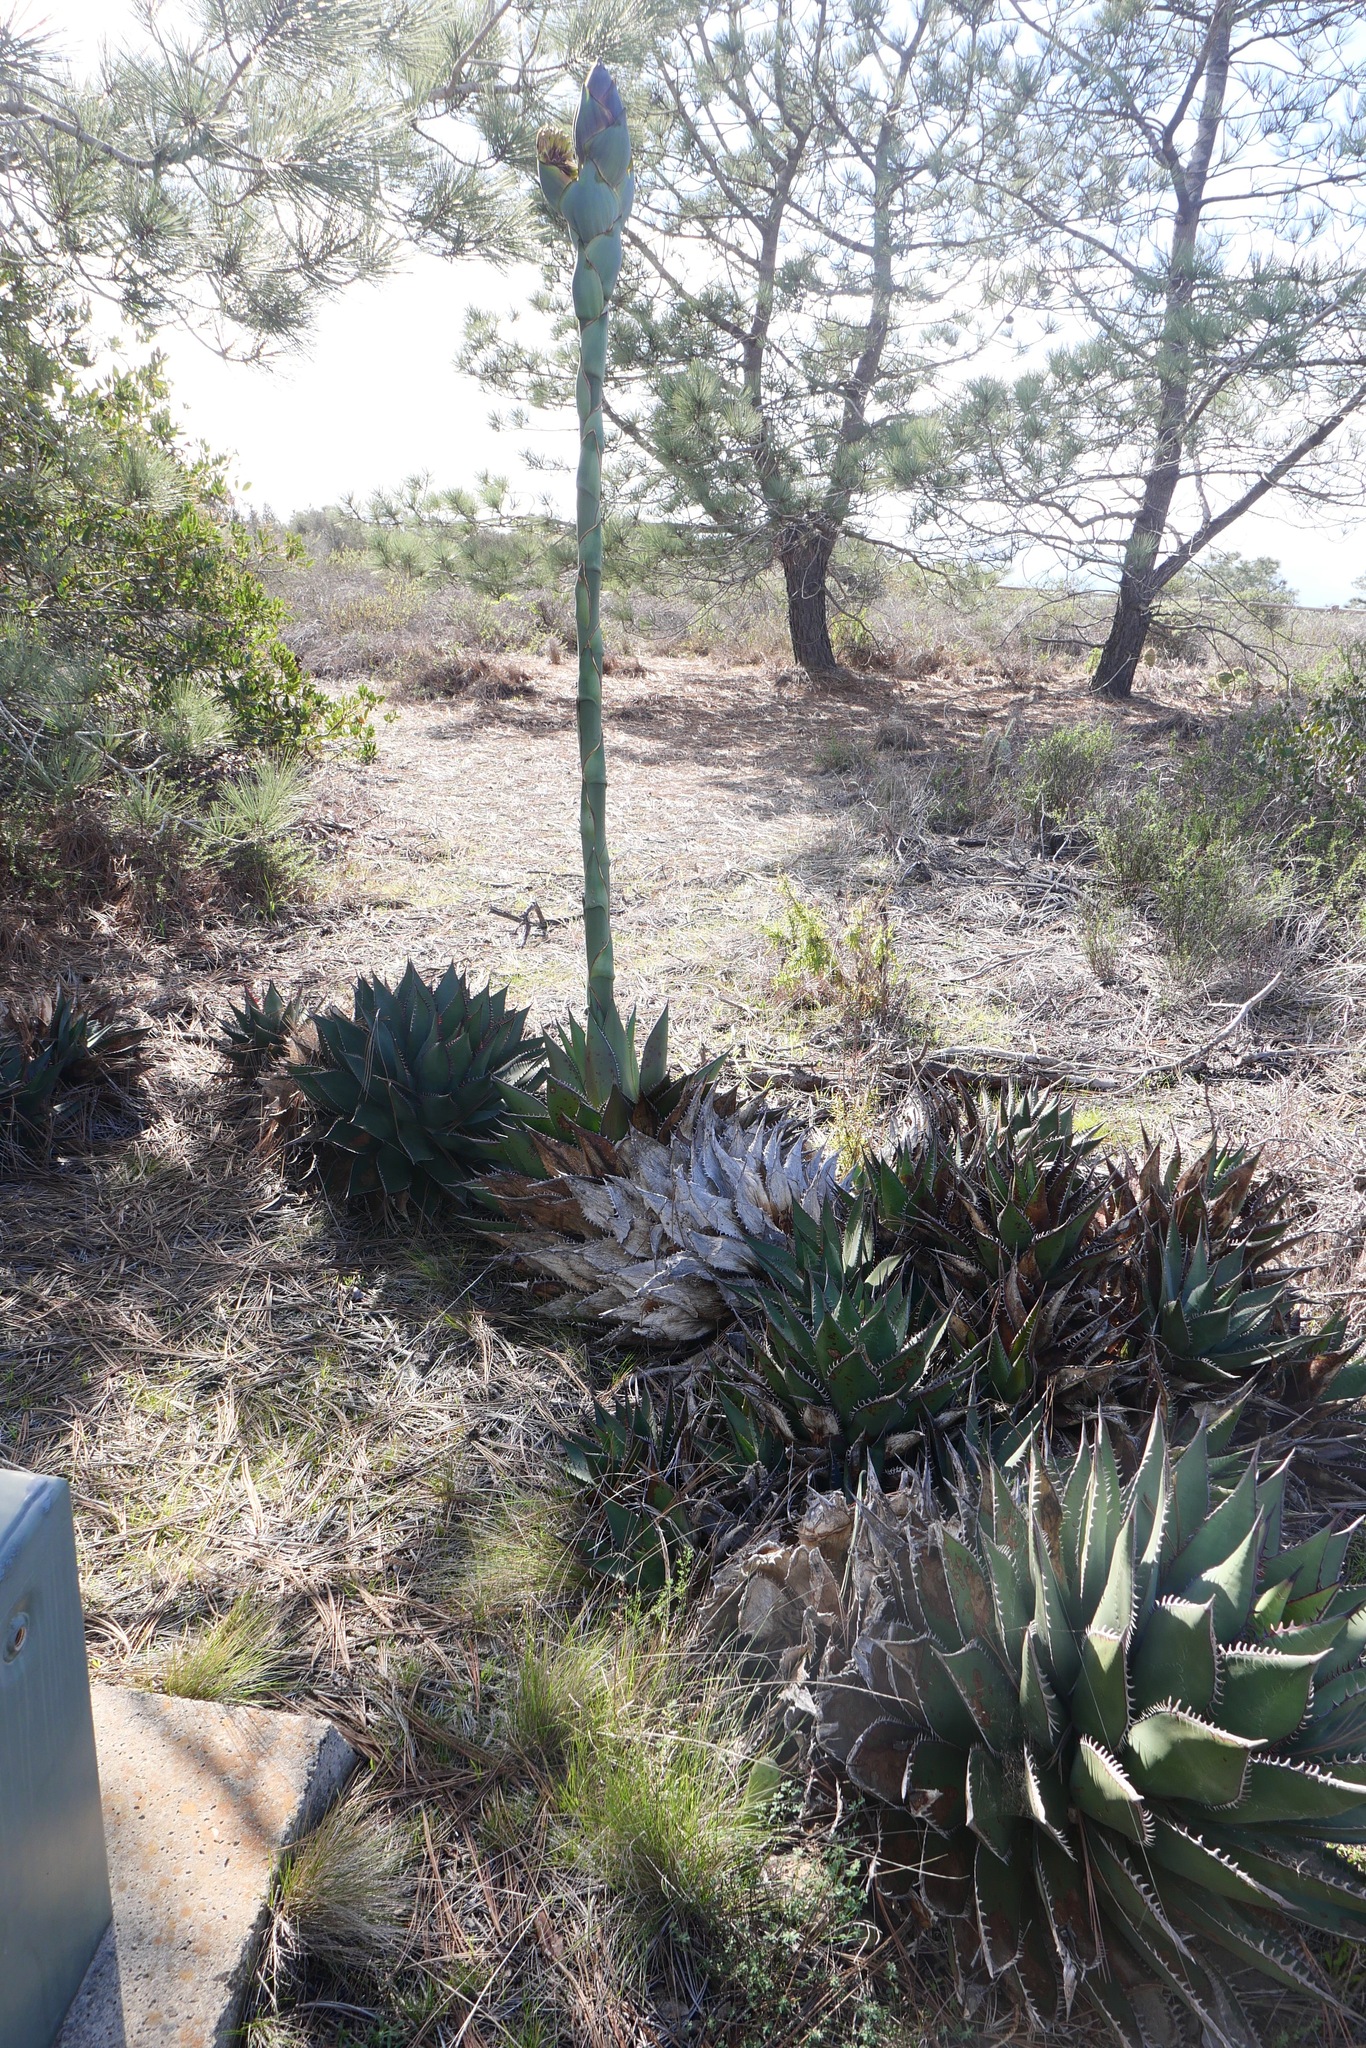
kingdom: Plantae
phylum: Tracheophyta
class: Liliopsida
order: Asparagales
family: Asparagaceae
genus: Agave
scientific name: Agave shawii
